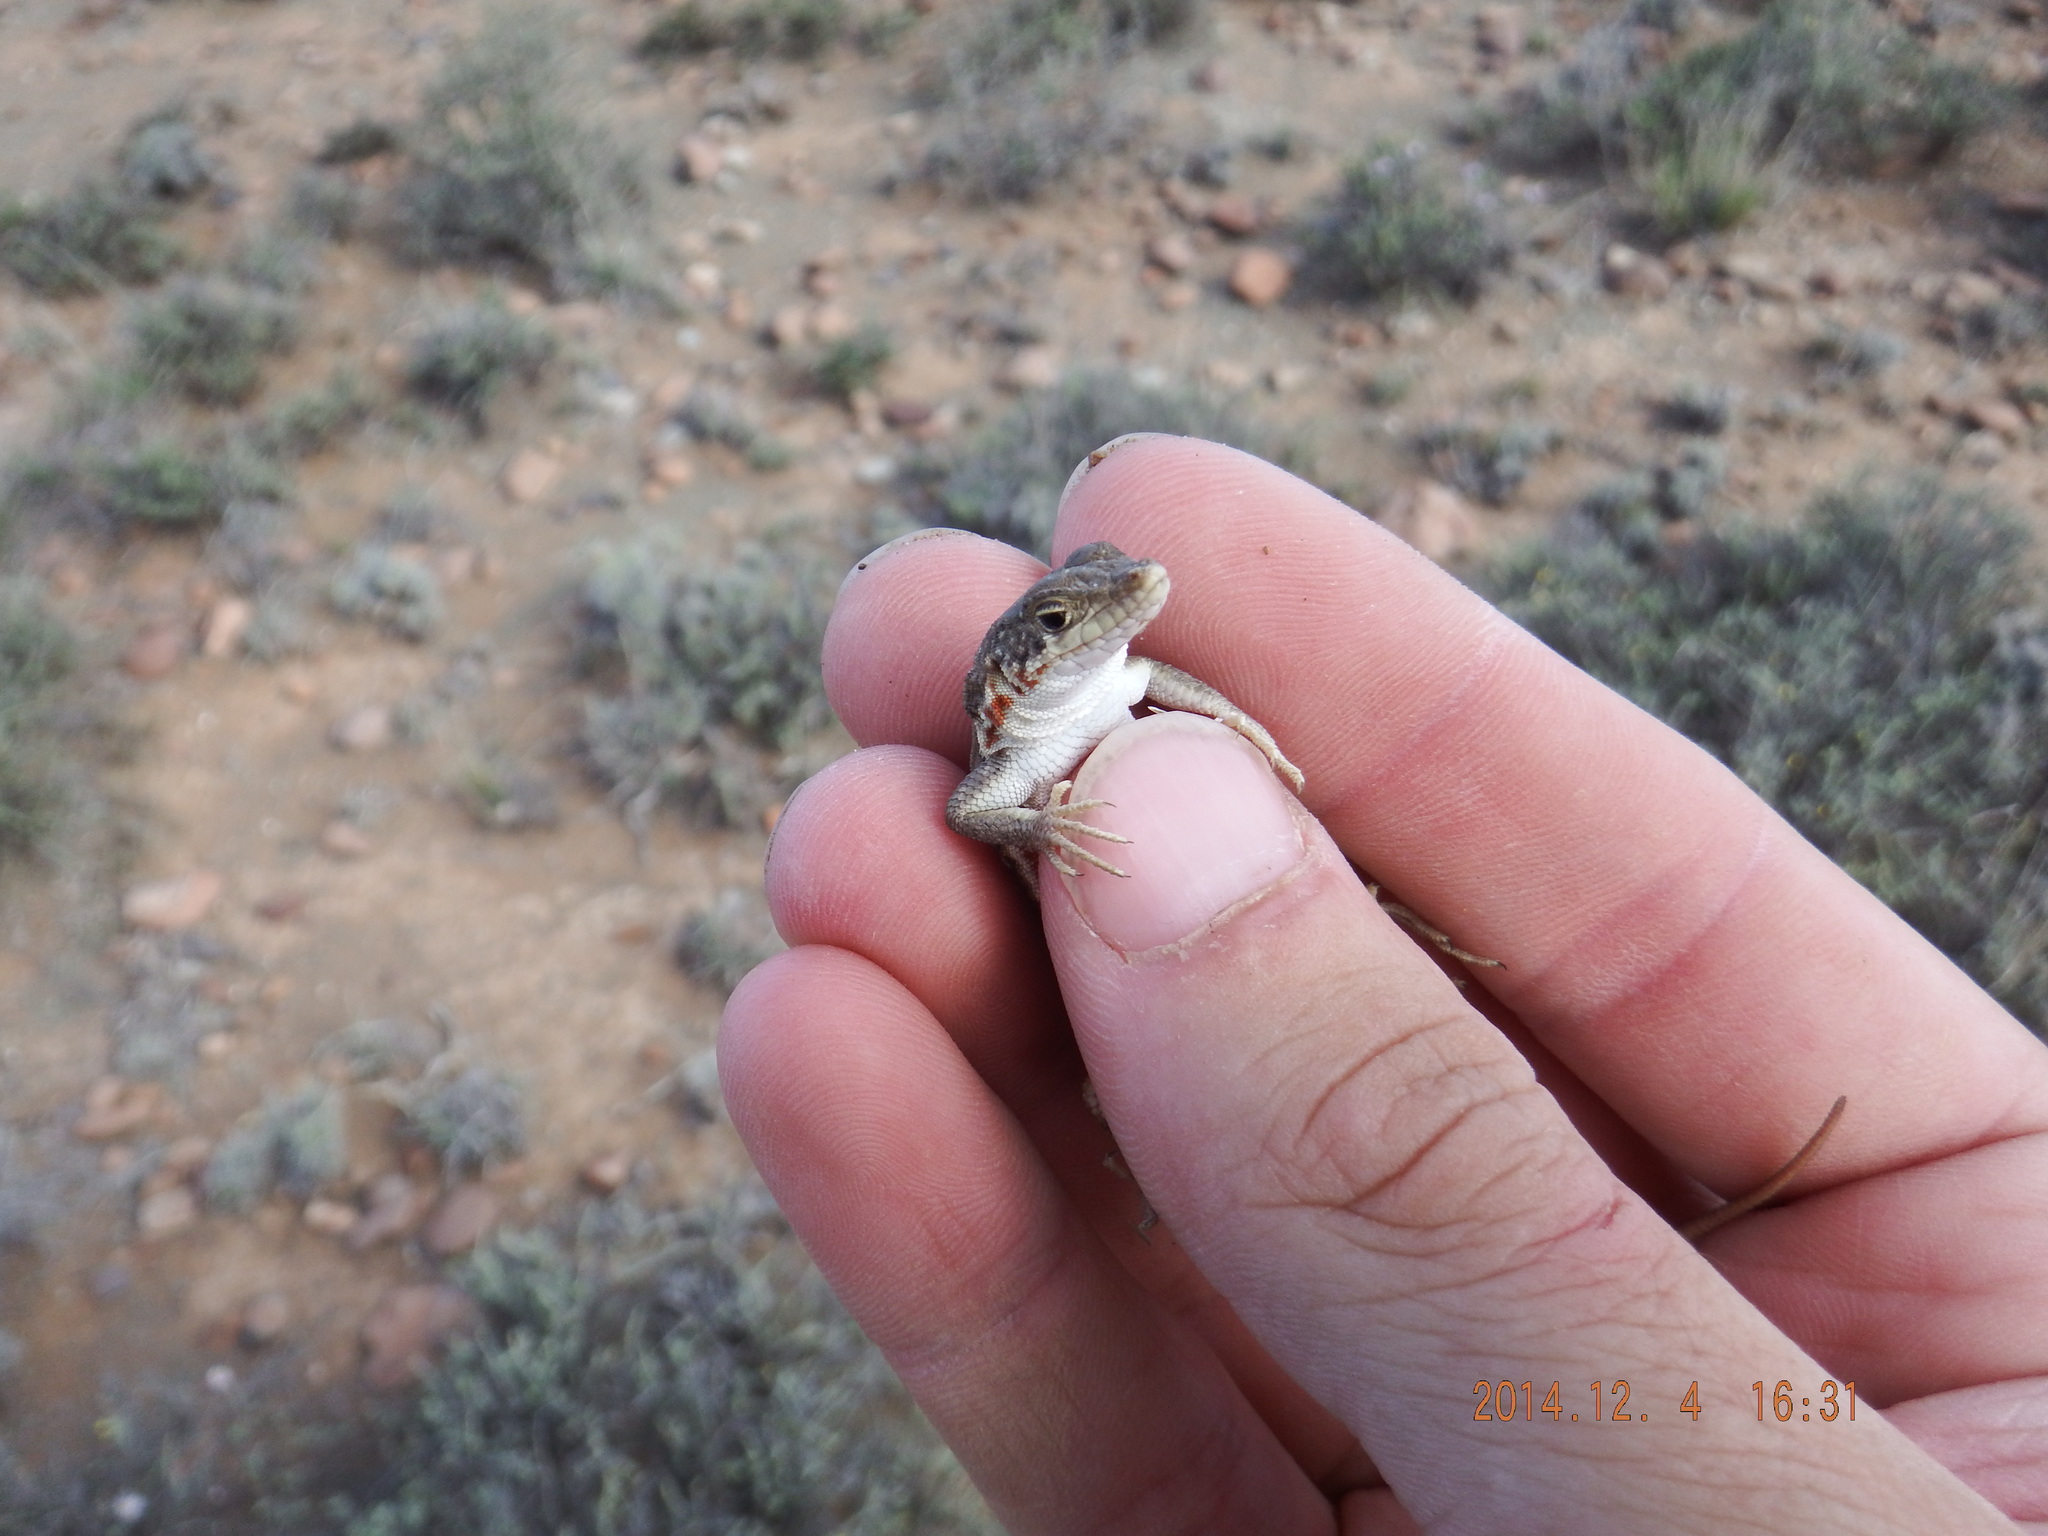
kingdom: Animalia
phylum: Chordata
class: Squamata
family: Lacertidae
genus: Pedioplanis
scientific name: Pedioplanis lineoocellata
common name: Spotted sand lizard
